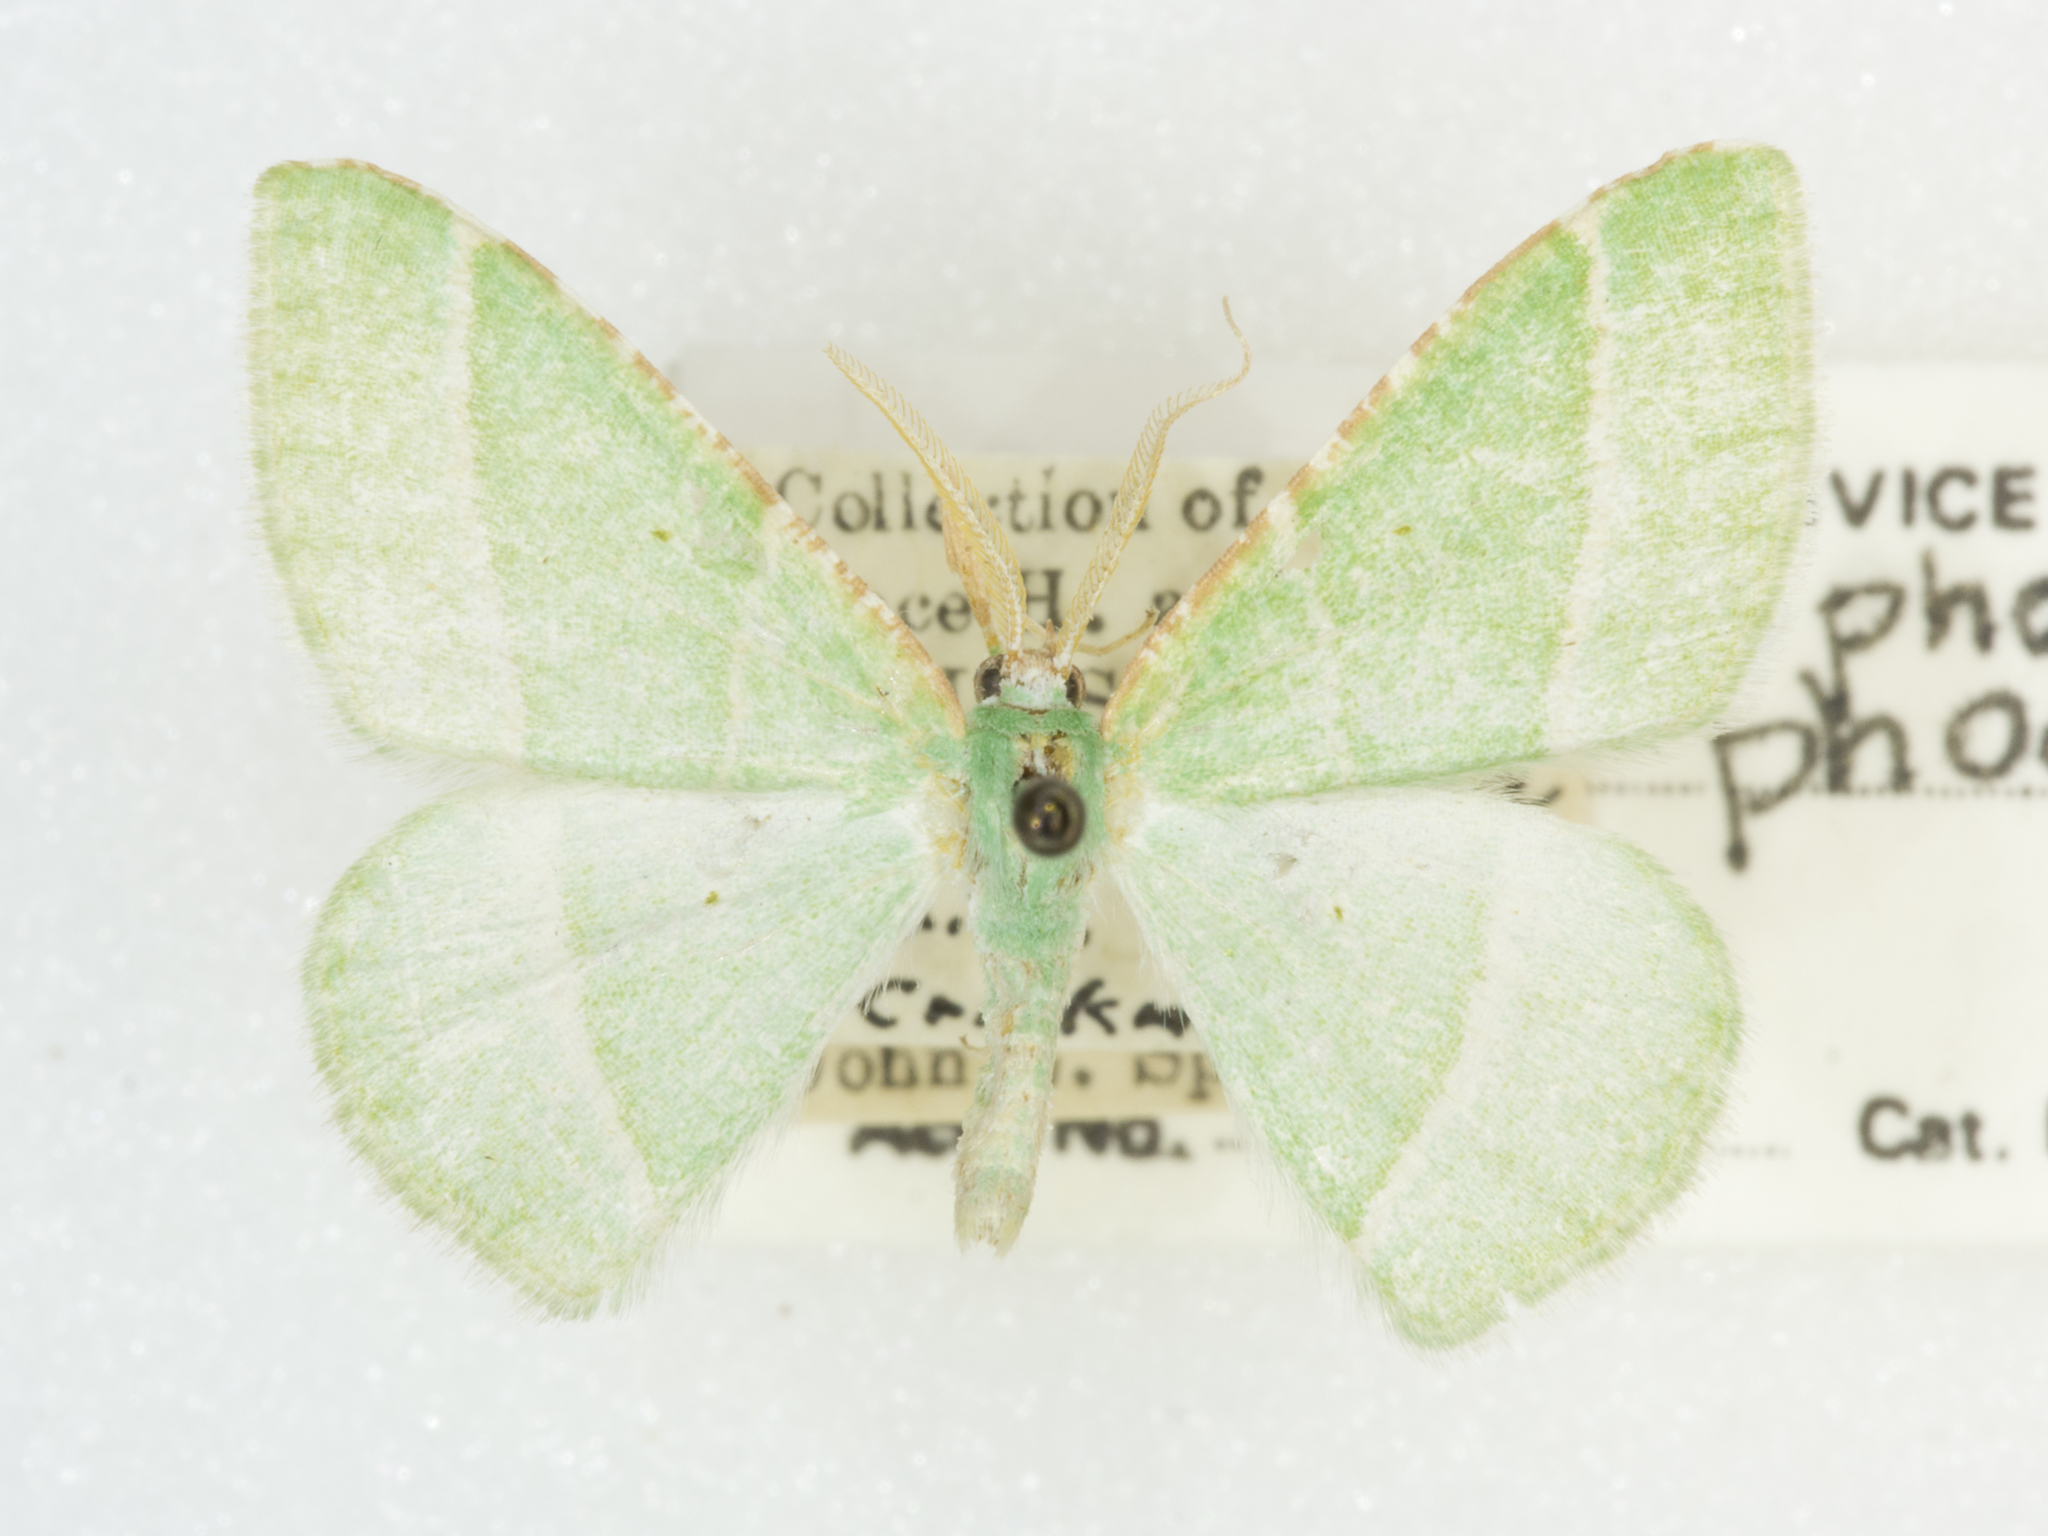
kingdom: Animalia
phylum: Arthropoda
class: Insecta
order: Lepidoptera
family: Geometridae
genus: Dichordophora
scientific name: Dichordophora phoenix
